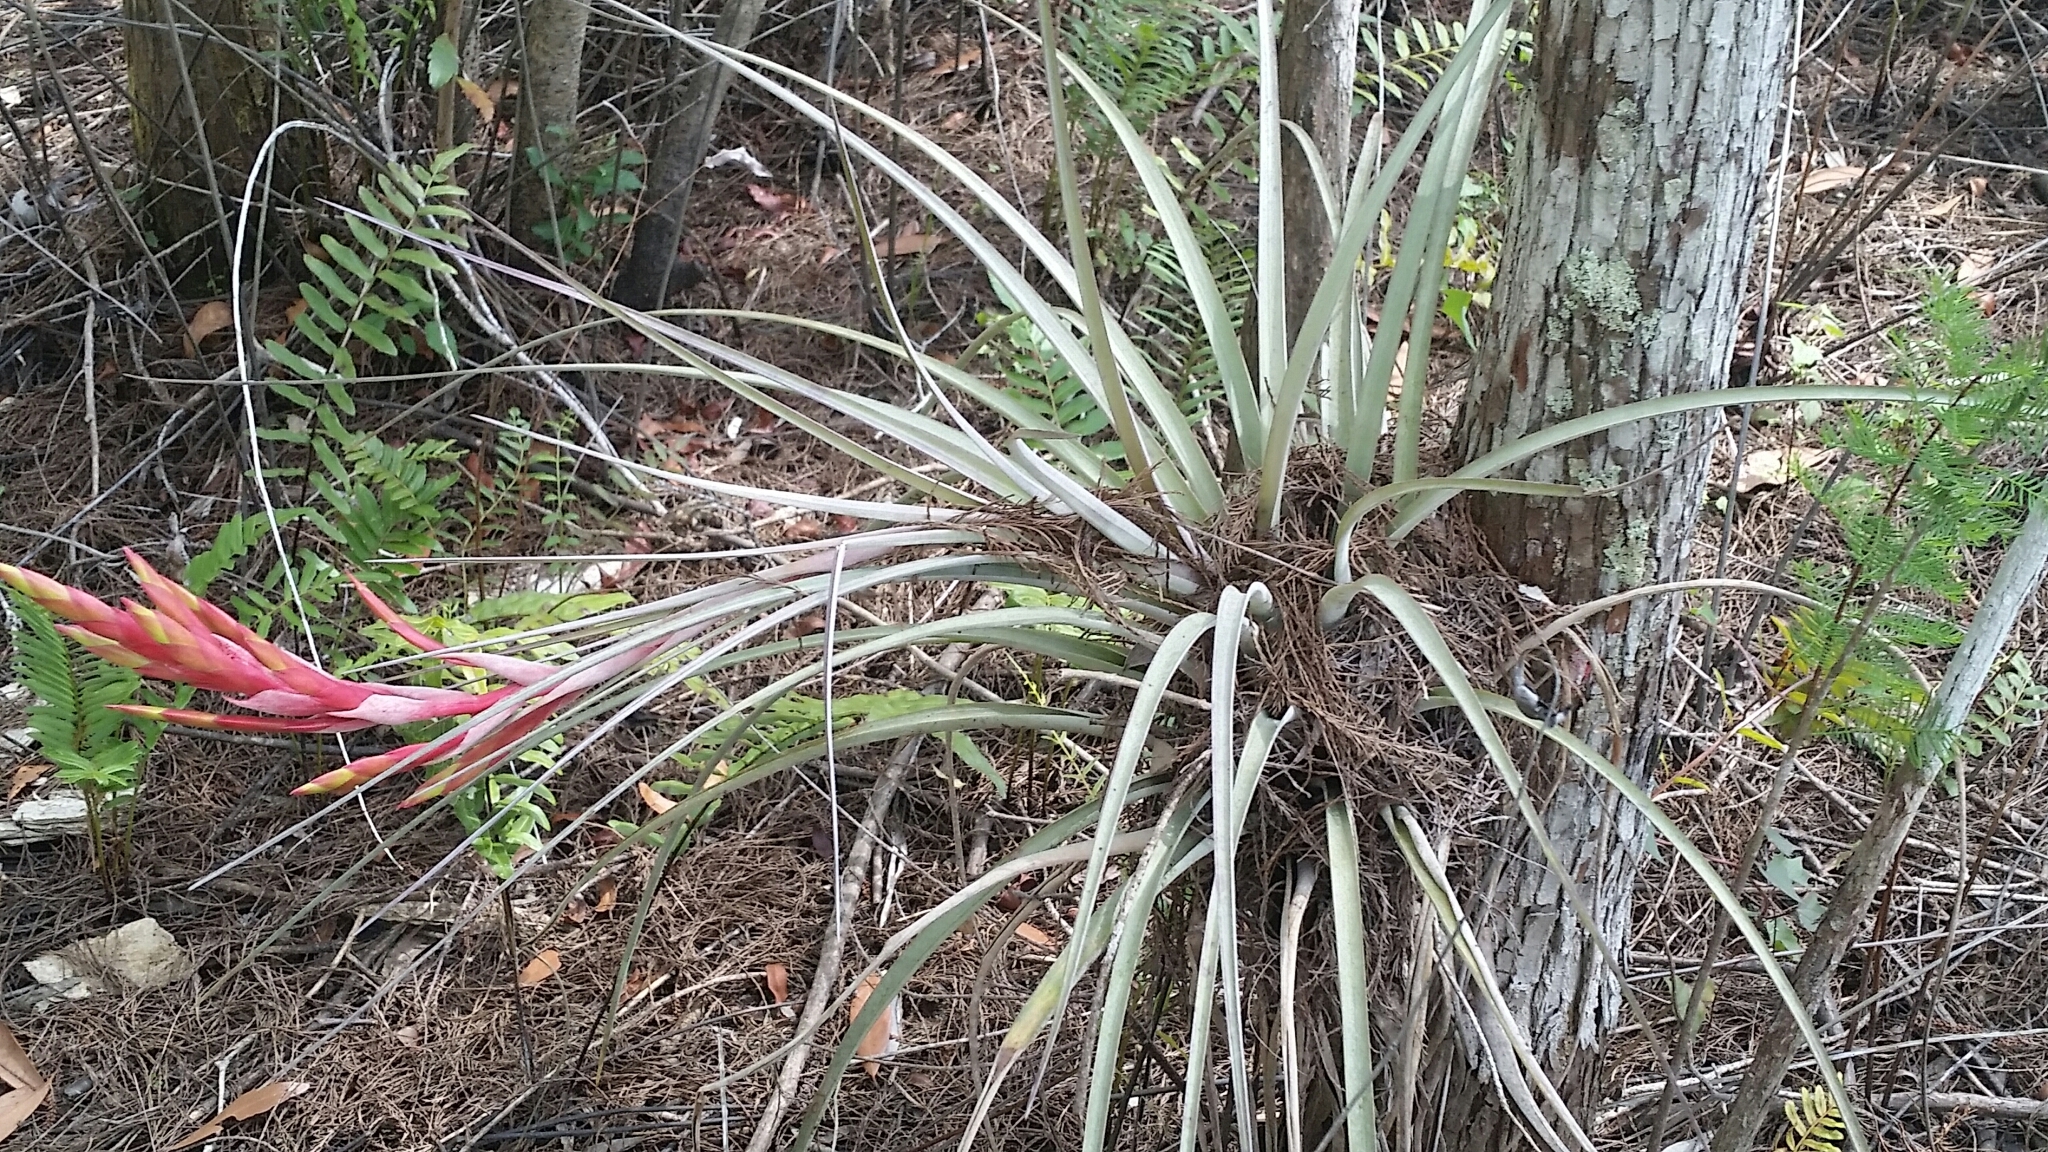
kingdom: Plantae
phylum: Tracheophyta
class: Liliopsida
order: Poales
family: Bromeliaceae
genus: Tillandsia
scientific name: Tillandsia fasciculata
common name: Giant airplant
